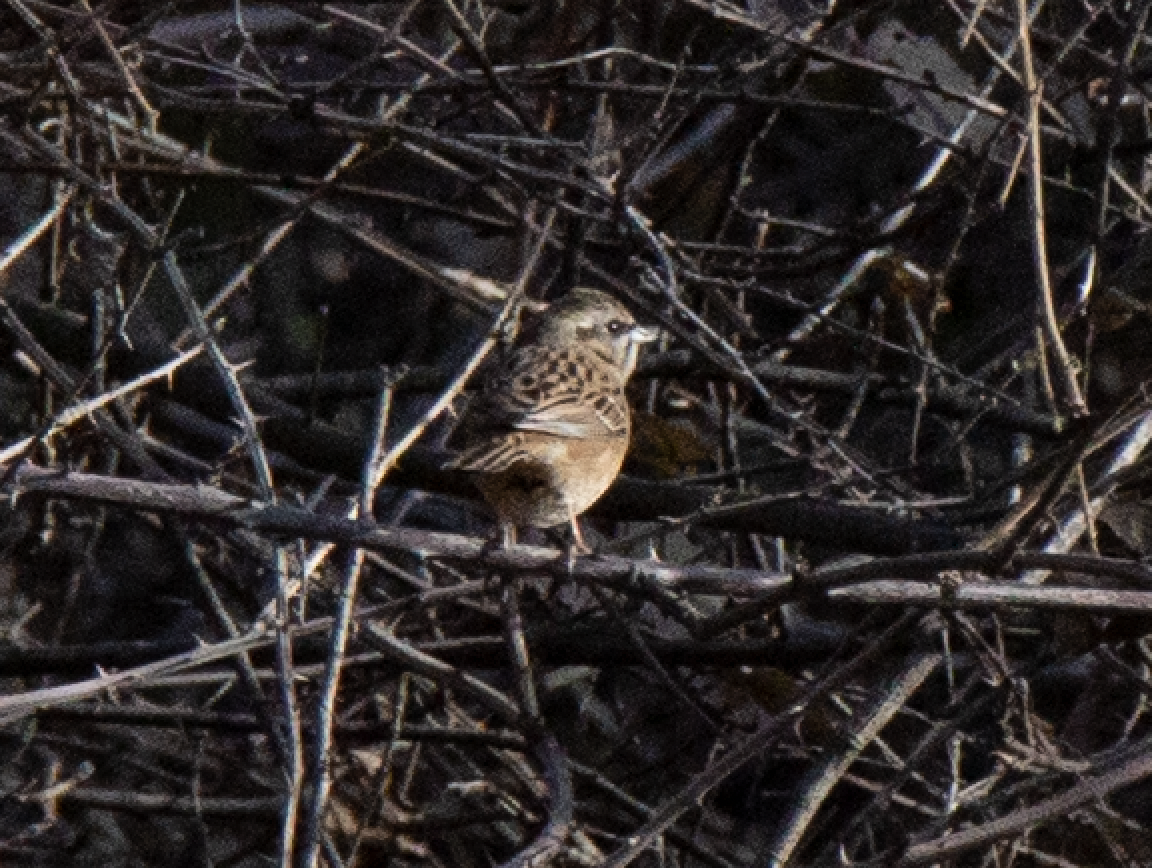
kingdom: Animalia
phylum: Chordata
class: Aves
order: Passeriformes
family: Emberizidae
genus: Emberiza
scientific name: Emberiza cia
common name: Rock bunting
